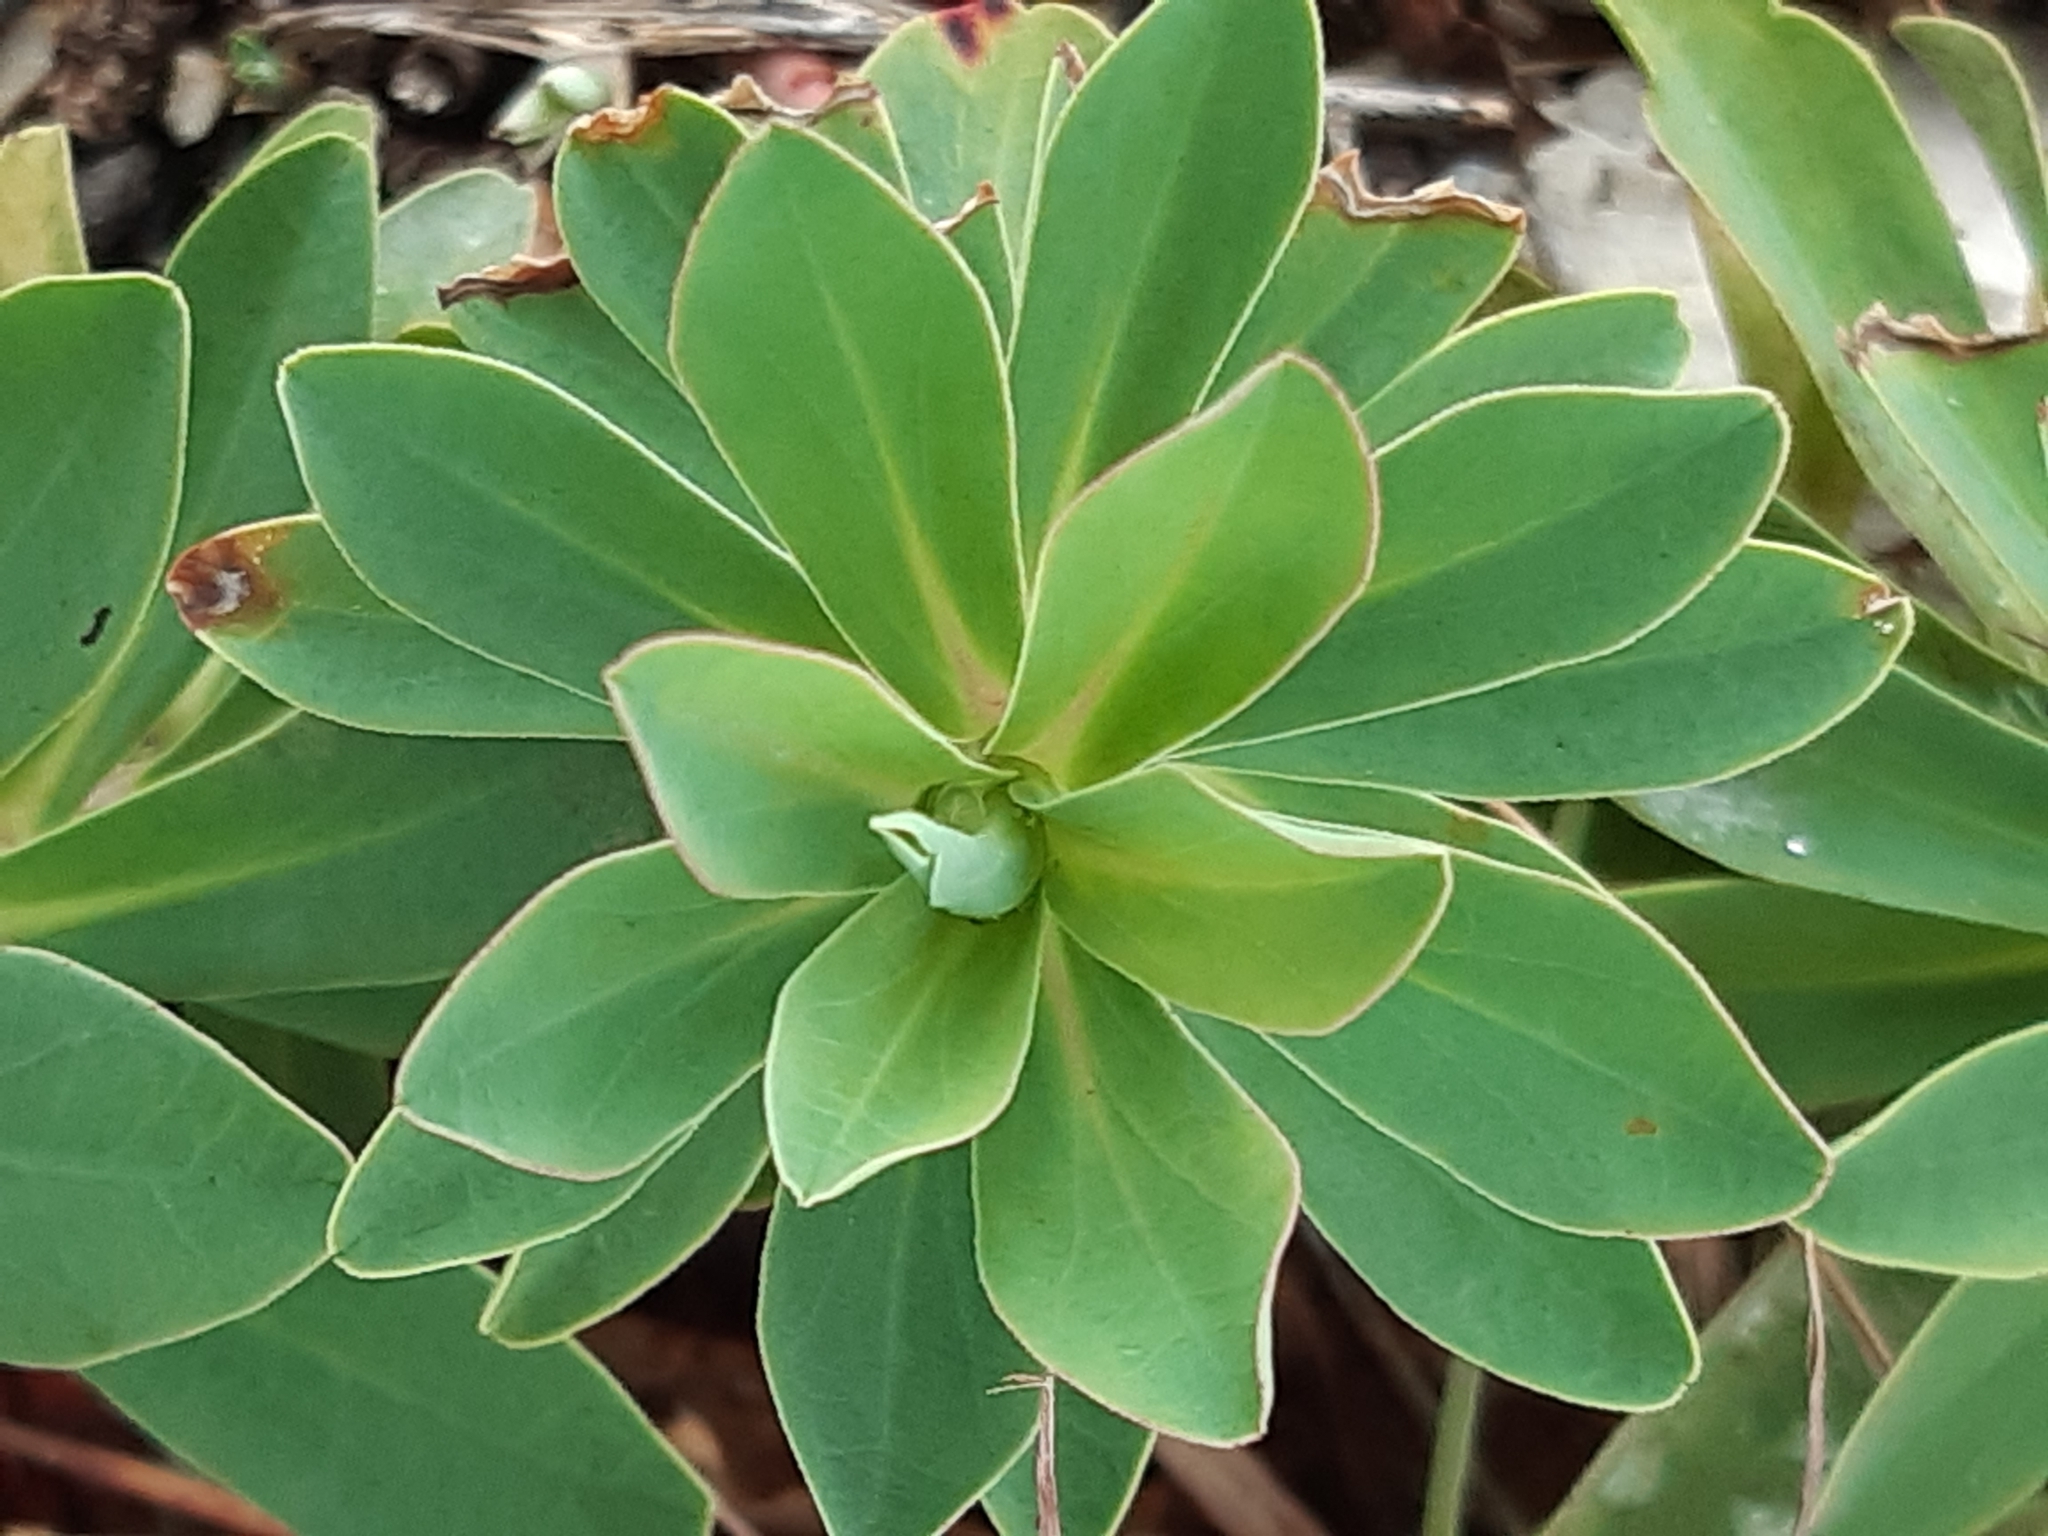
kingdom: Plantae
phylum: Tracheophyta
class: Magnoliopsida
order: Malpighiales
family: Euphorbiaceae
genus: Euphorbia
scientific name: Euphorbia glareosa
